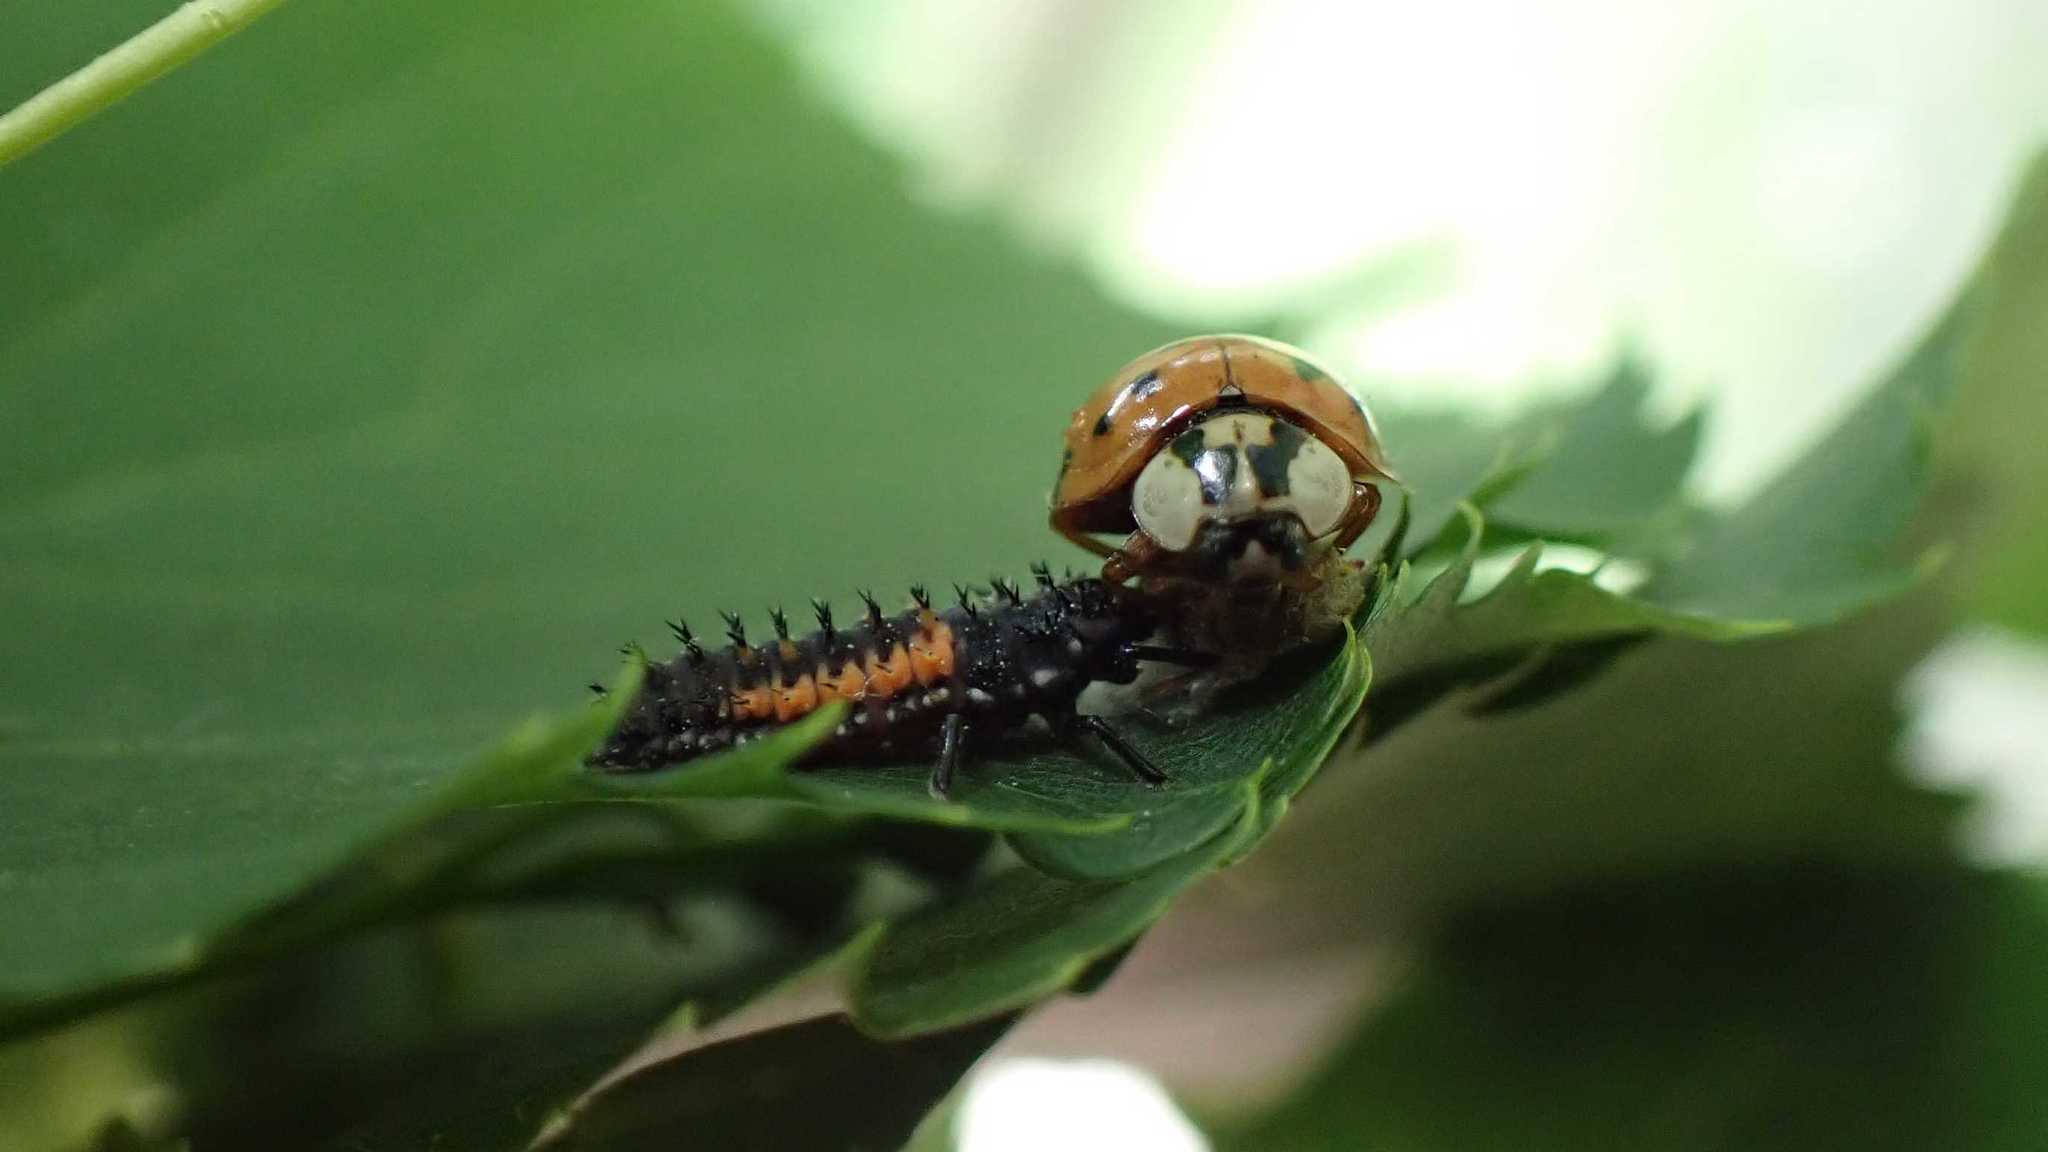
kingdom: Animalia
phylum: Arthropoda
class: Insecta
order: Hymenoptera
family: Braconidae
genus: Dinocampus
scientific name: Dinocampus coccinellae
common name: Braconid wasp
